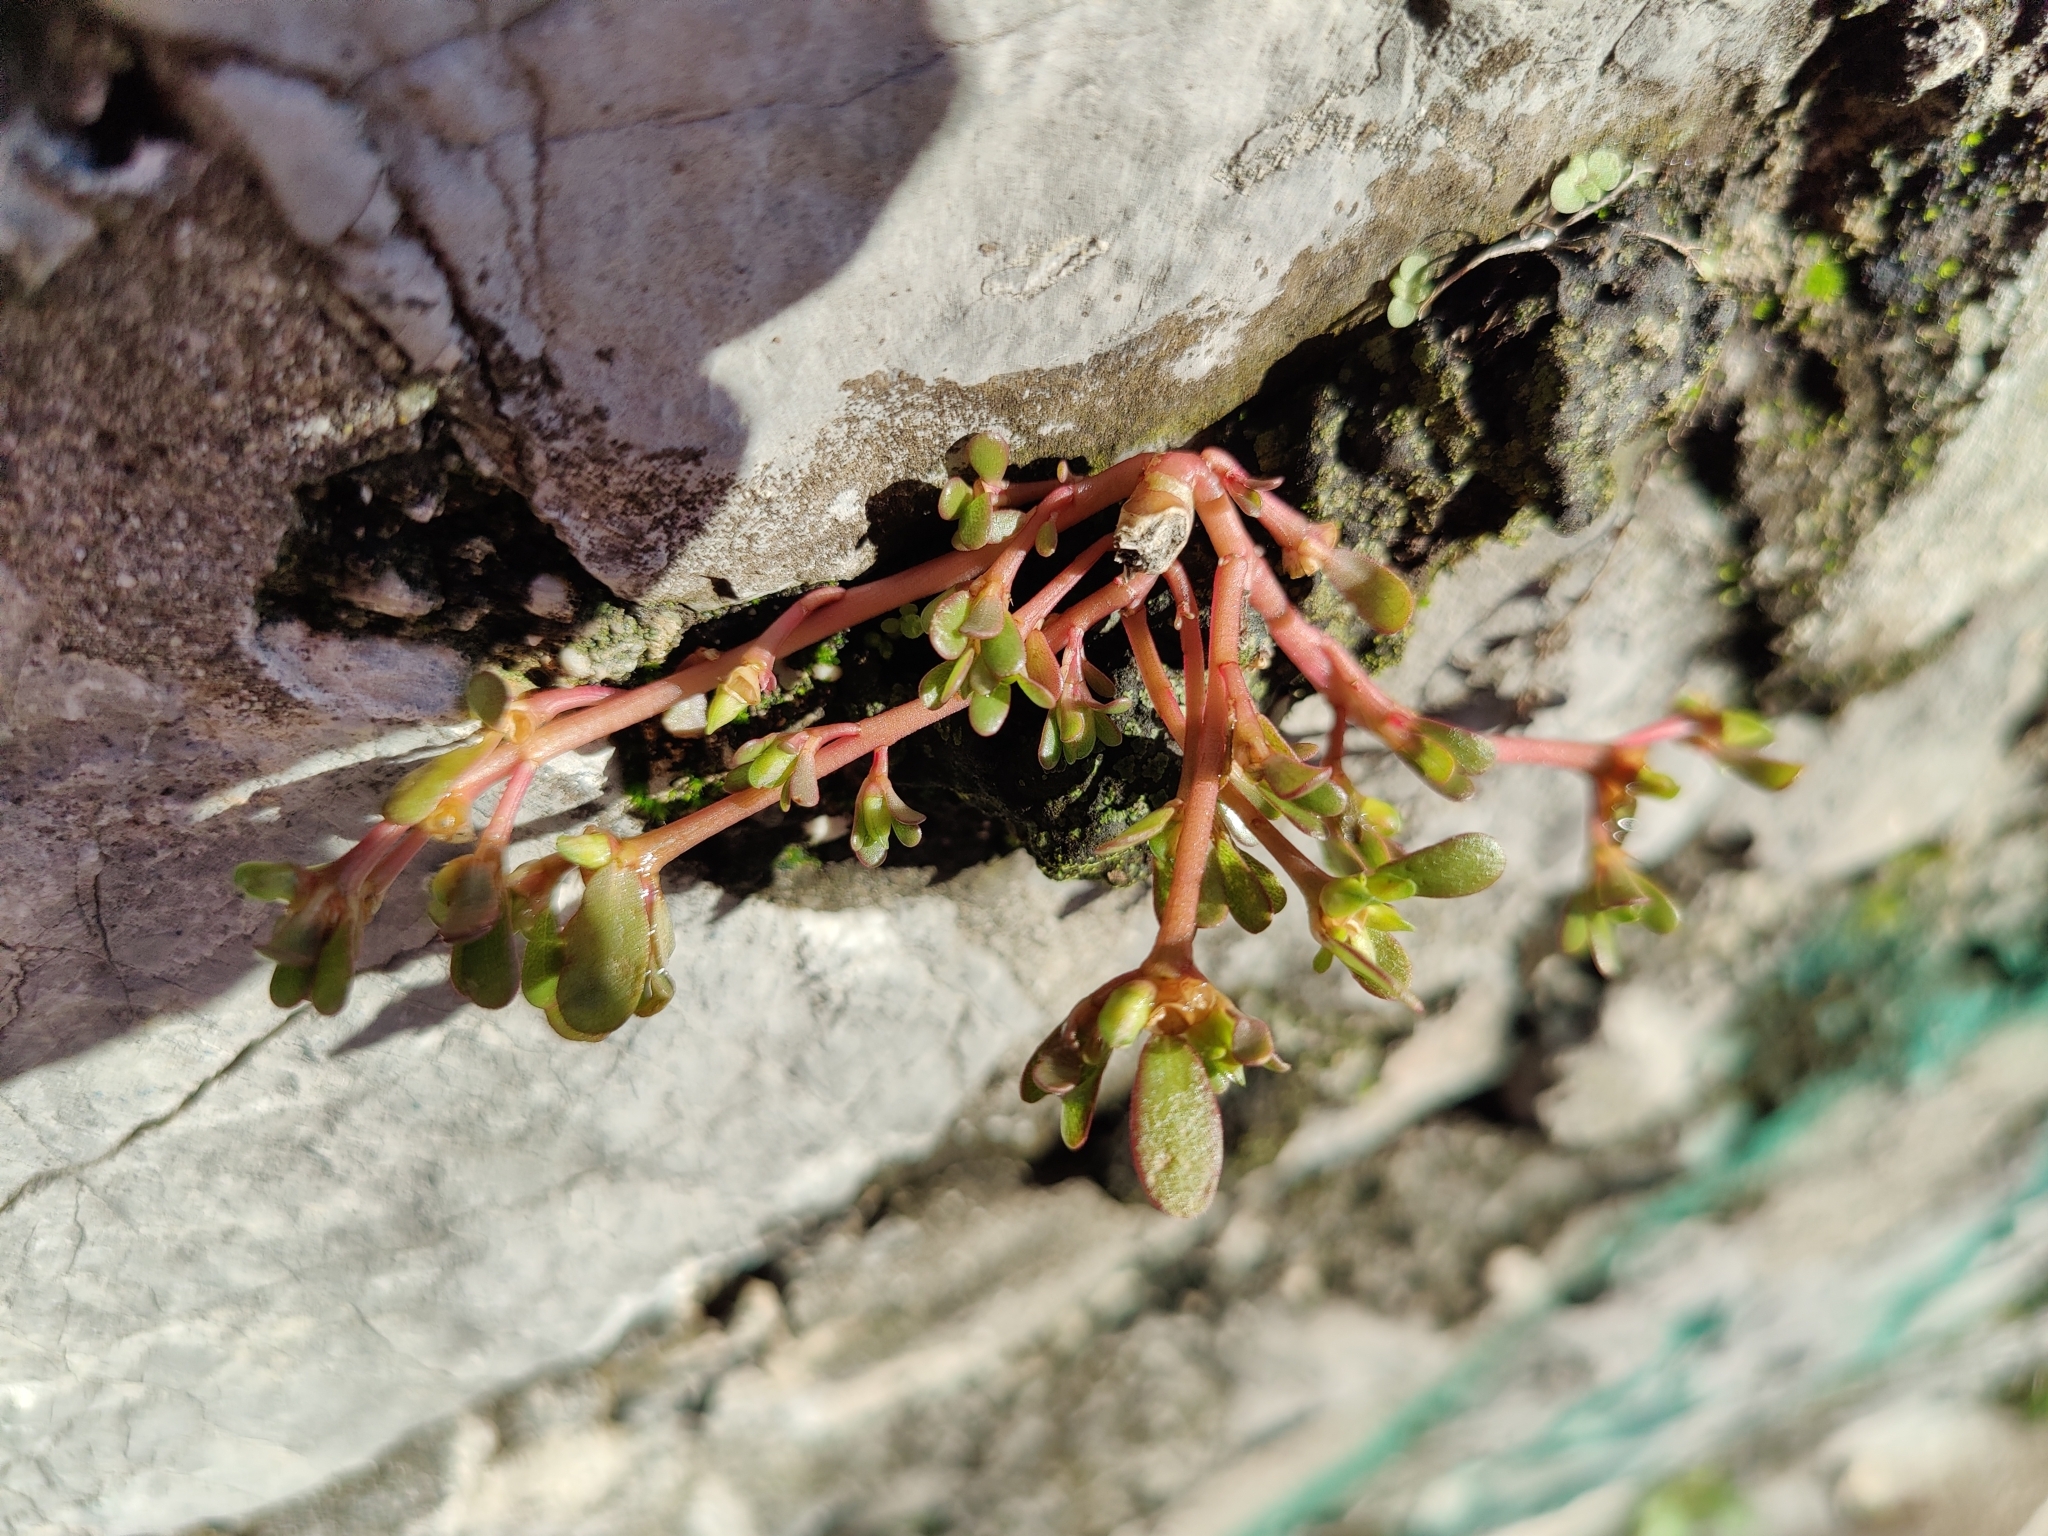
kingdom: Plantae
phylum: Tracheophyta
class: Magnoliopsida
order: Caryophyllales
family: Portulacaceae
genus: Portulaca
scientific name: Portulaca oleracea
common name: Common purslane
